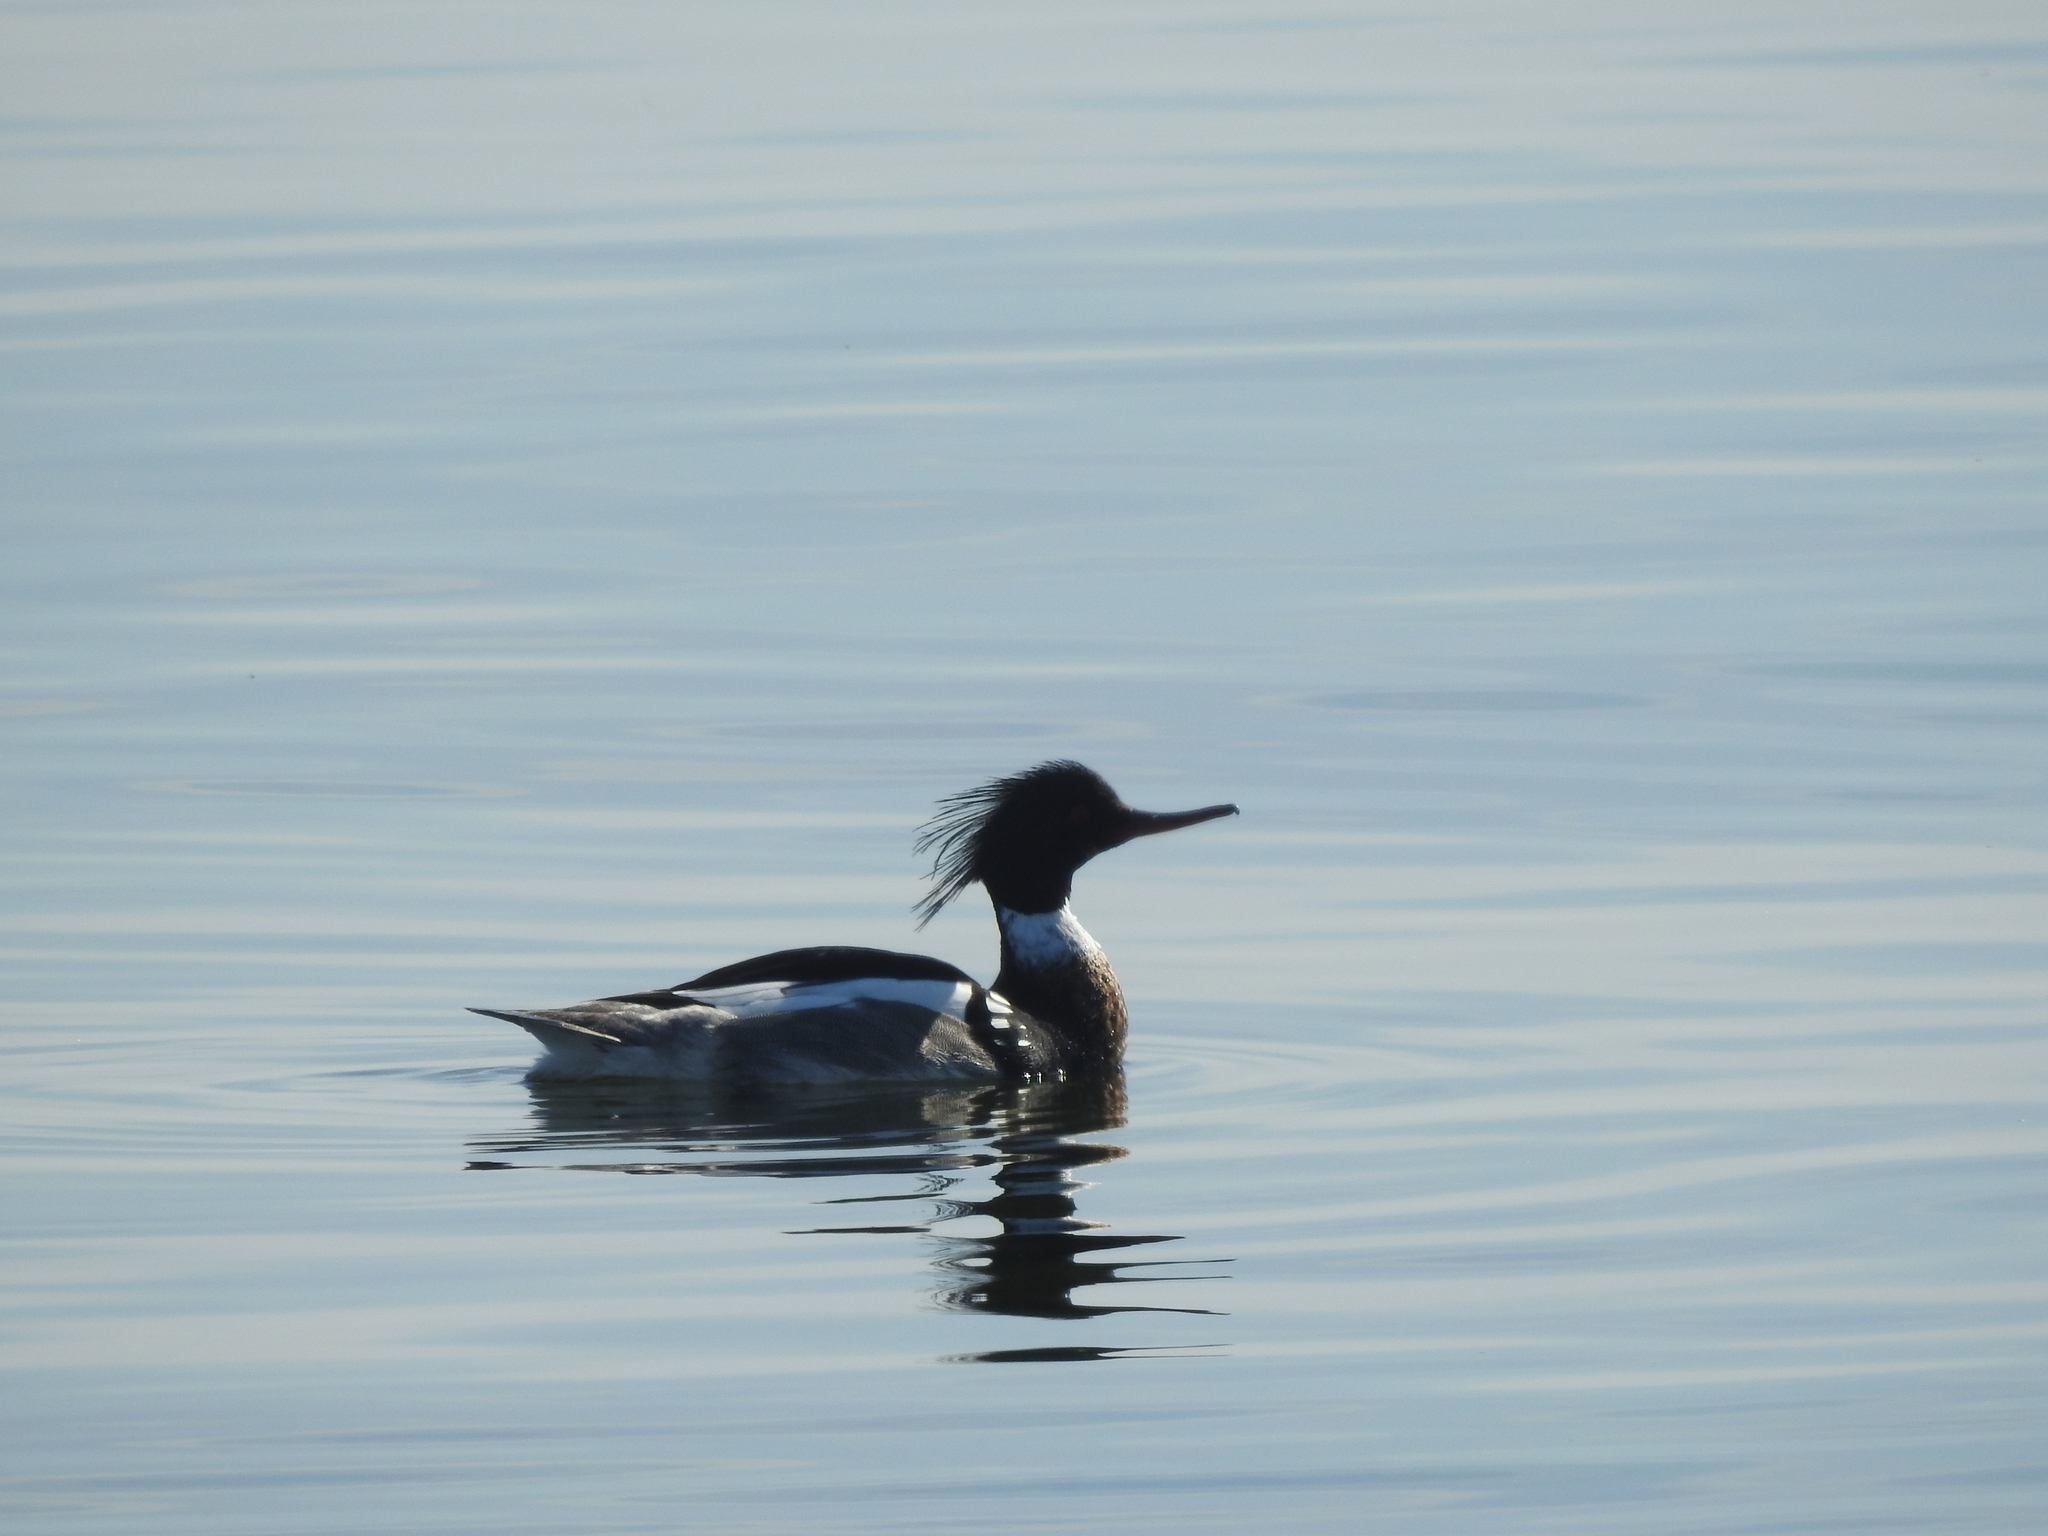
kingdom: Animalia
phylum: Chordata
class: Aves
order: Anseriformes
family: Anatidae
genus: Mergus
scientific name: Mergus serrator
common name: Red-breasted merganser
